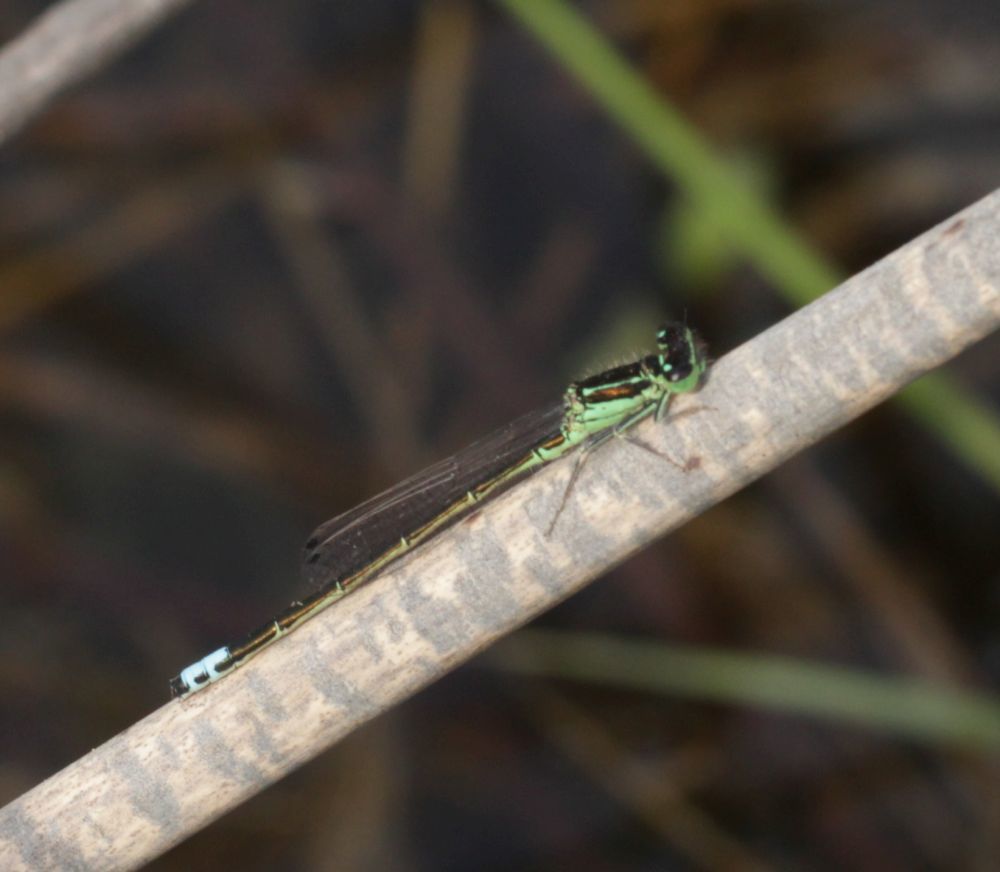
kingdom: Animalia
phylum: Arthropoda
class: Insecta
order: Odonata
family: Coenagrionidae
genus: Ischnura
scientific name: Ischnura verticalis
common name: Eastern forktail
